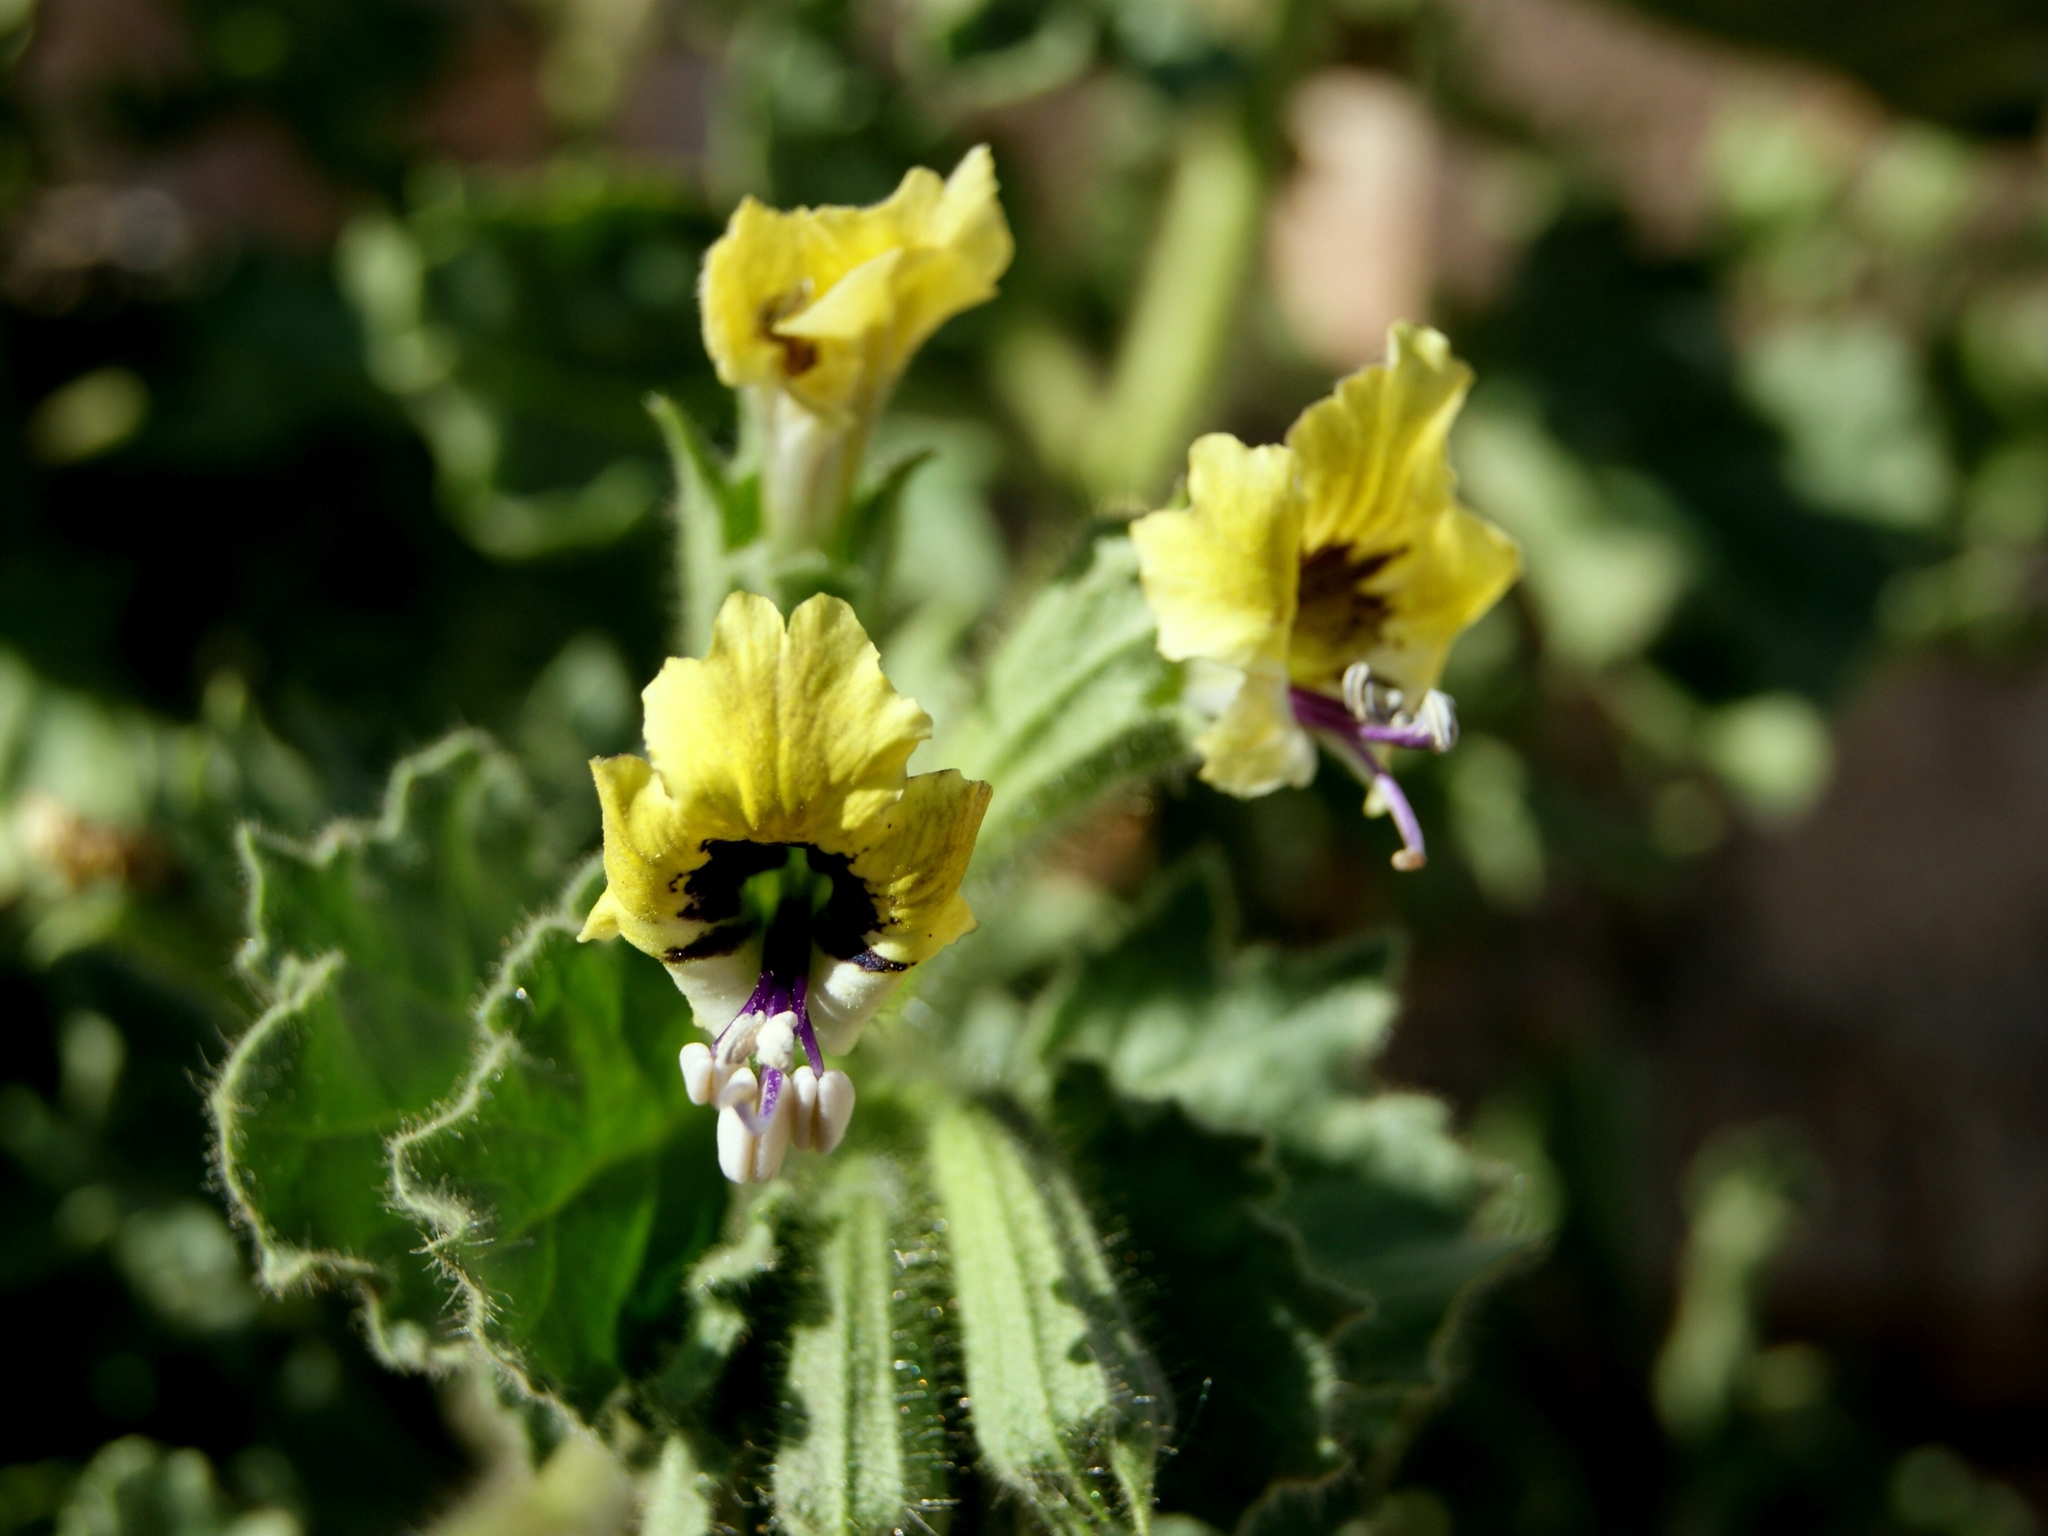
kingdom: Plantae
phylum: Tracheophyta
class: Magnoliopsida
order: Solanales
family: Solanaceae
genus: Hyoscyamus
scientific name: Hyoscyamus aureus
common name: Golden henbane
